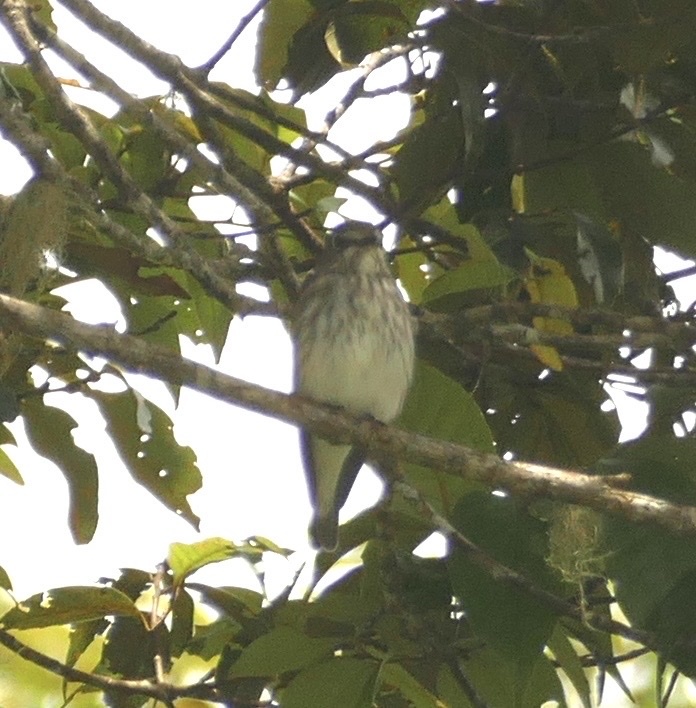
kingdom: Animalia
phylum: Chordata
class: Aves
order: Passeriformes
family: Muscicapidae
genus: Muscicapa
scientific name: Muscicapa griseisticta
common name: Gray-streaked flycatcher
